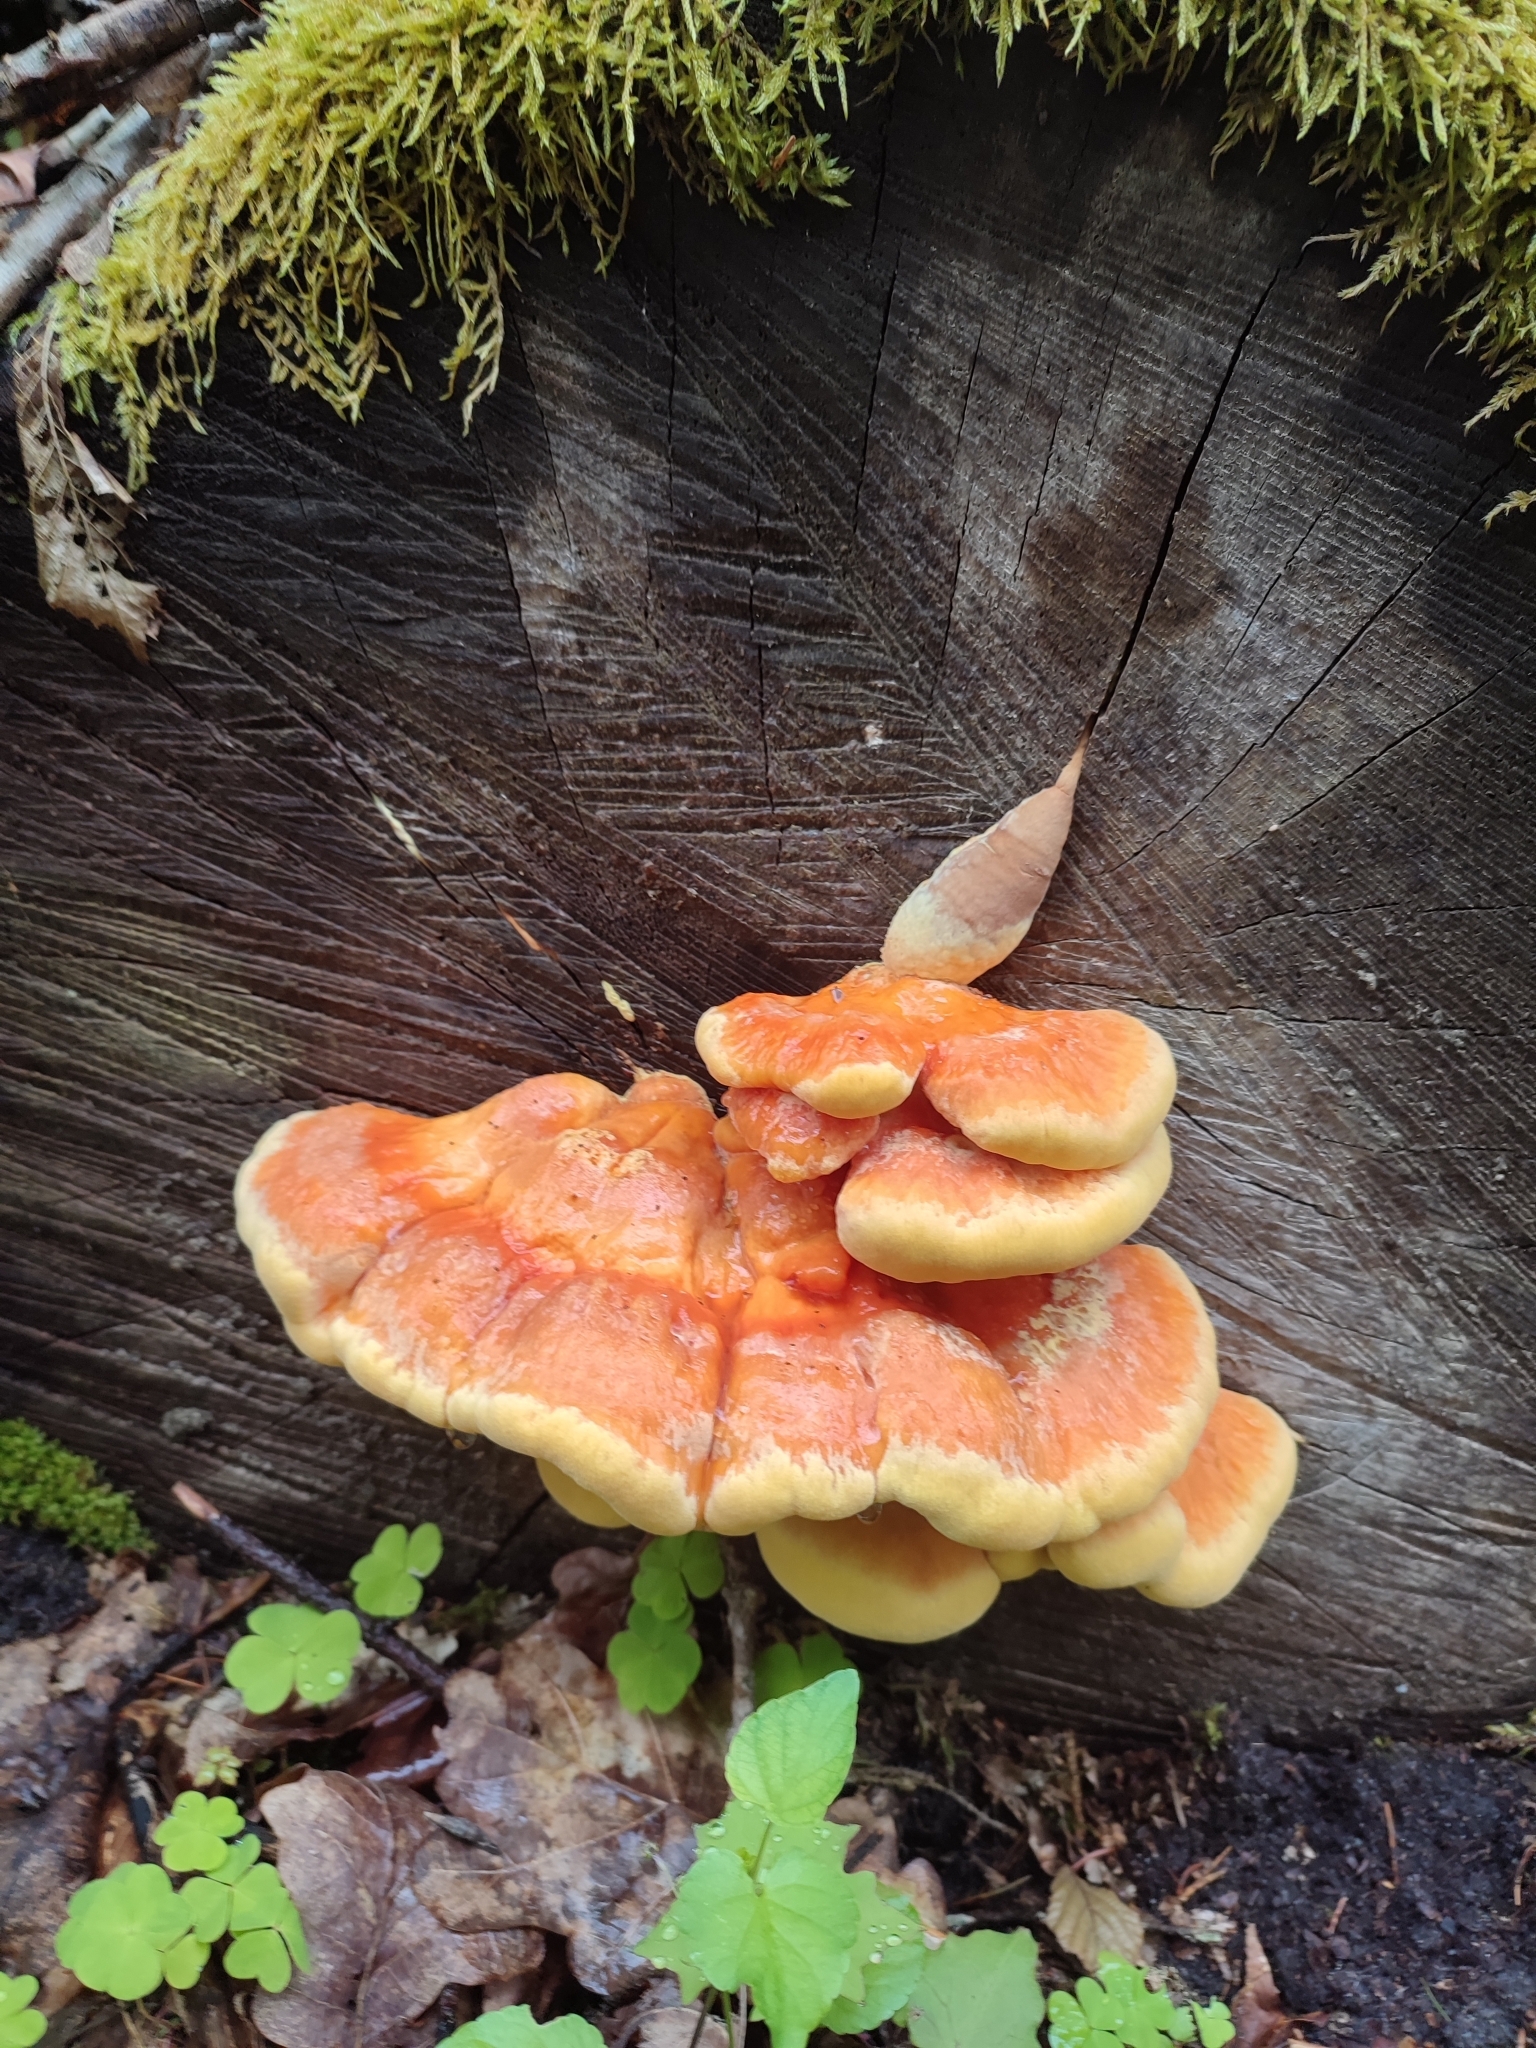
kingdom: Fungi
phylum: Basidiomycota
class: Agaricomycetes
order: Polyporales
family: Laetiporaceae
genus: Laetiporus
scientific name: Laetiporus sulphureus
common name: Chicken of the woods
